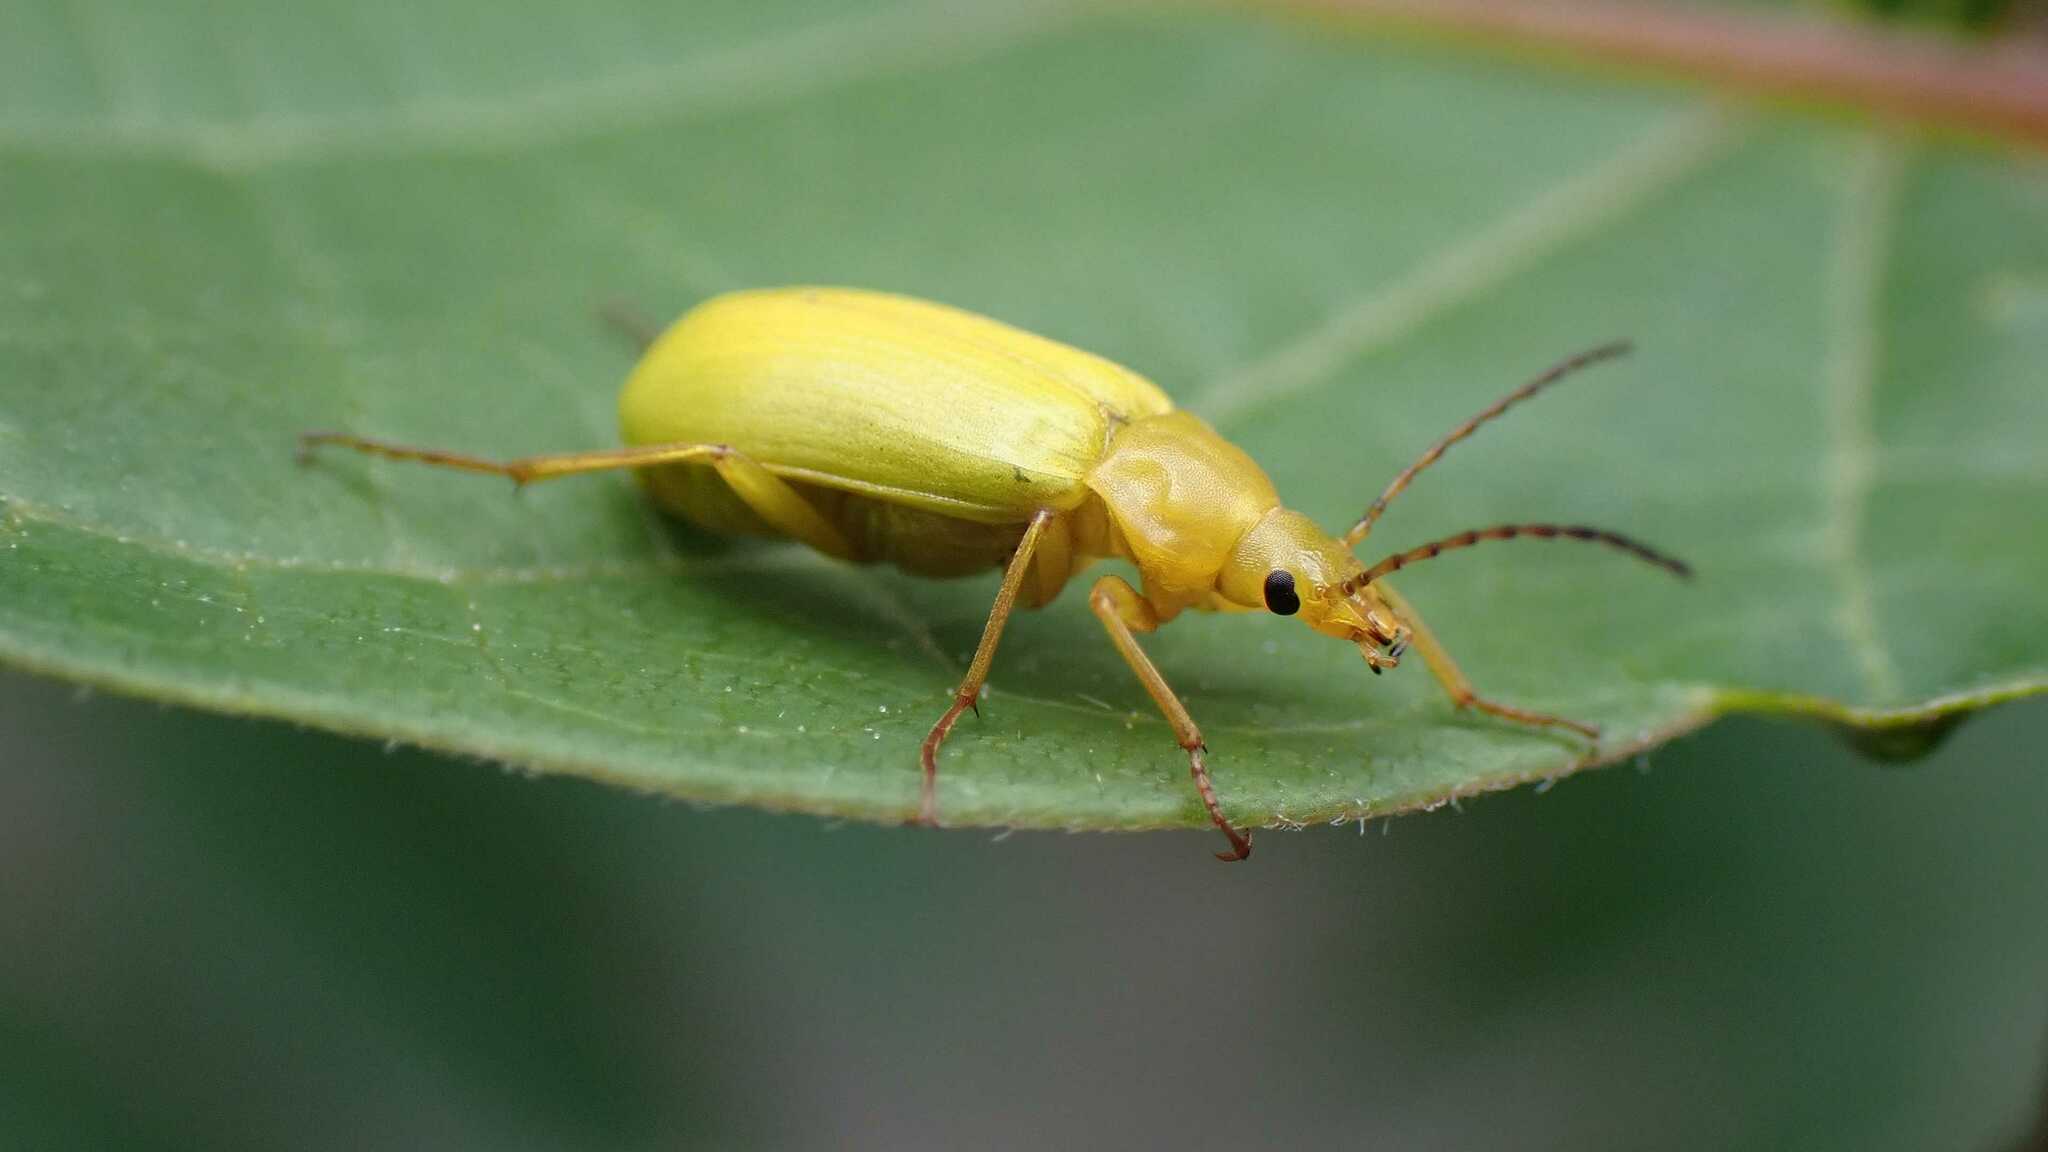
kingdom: Animalia
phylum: Arthropoda
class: Insecta
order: Coleoptera
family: Tenebrionidae
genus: Cteniopus
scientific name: Cteniopus sulphureus
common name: Sulphur beetle
